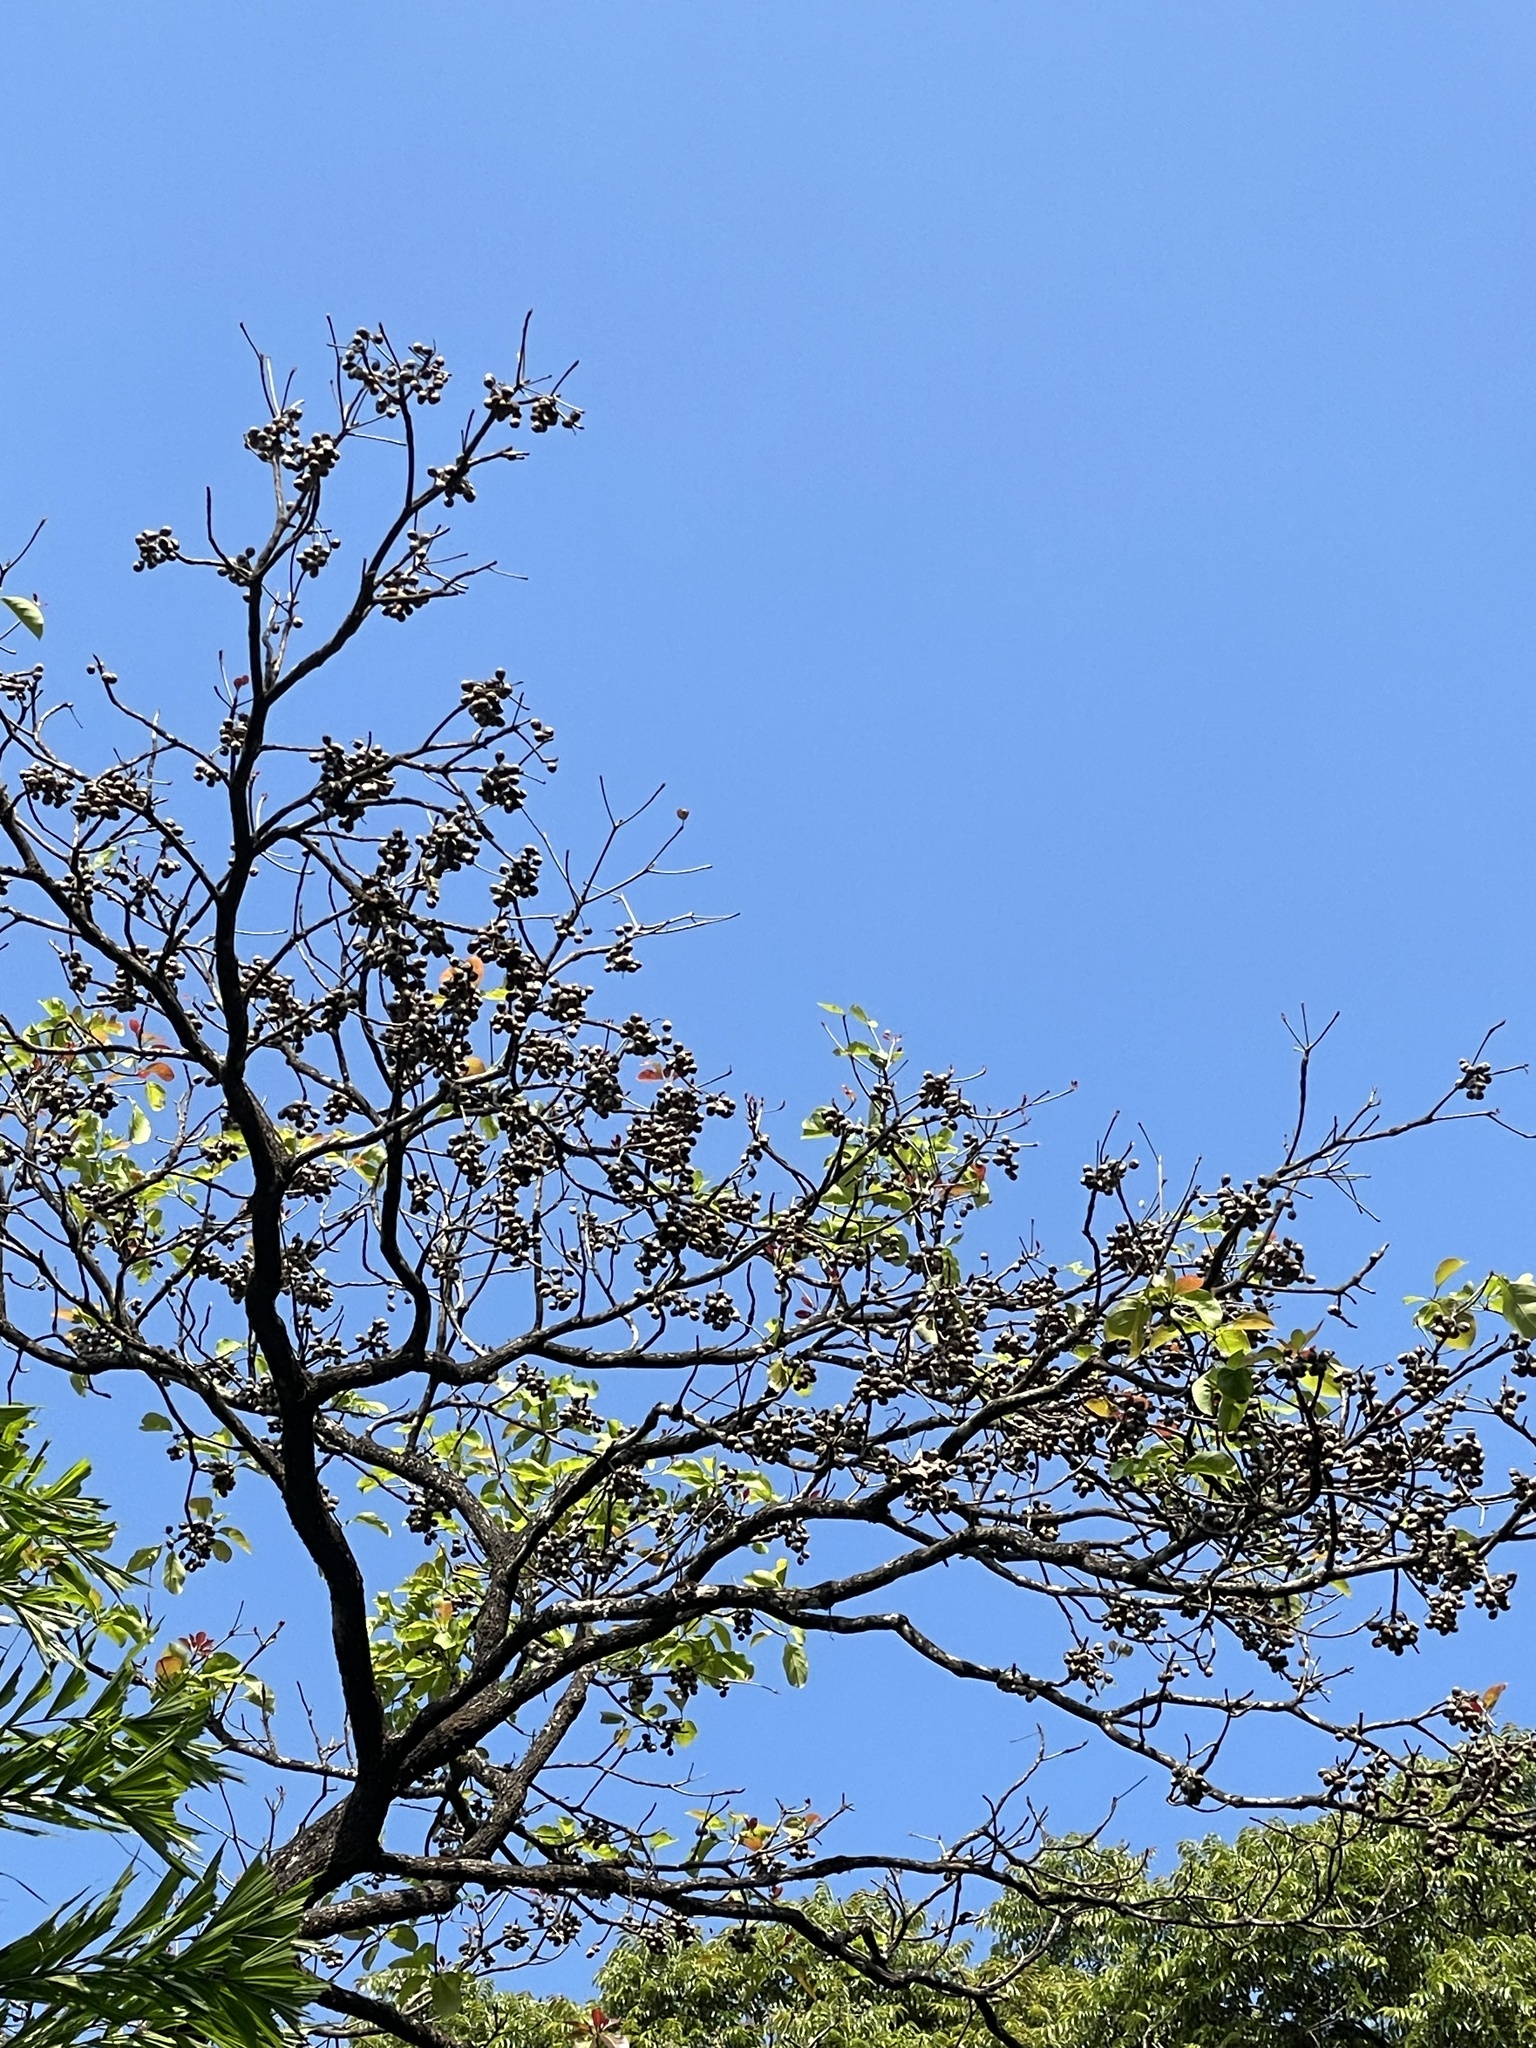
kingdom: Plantae
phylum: Tracheophyta
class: Magnoliopsida
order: Myrtales
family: Combretaceae
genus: Terminalia
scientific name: Terminalia bellirica
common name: Beleric myrobalan
